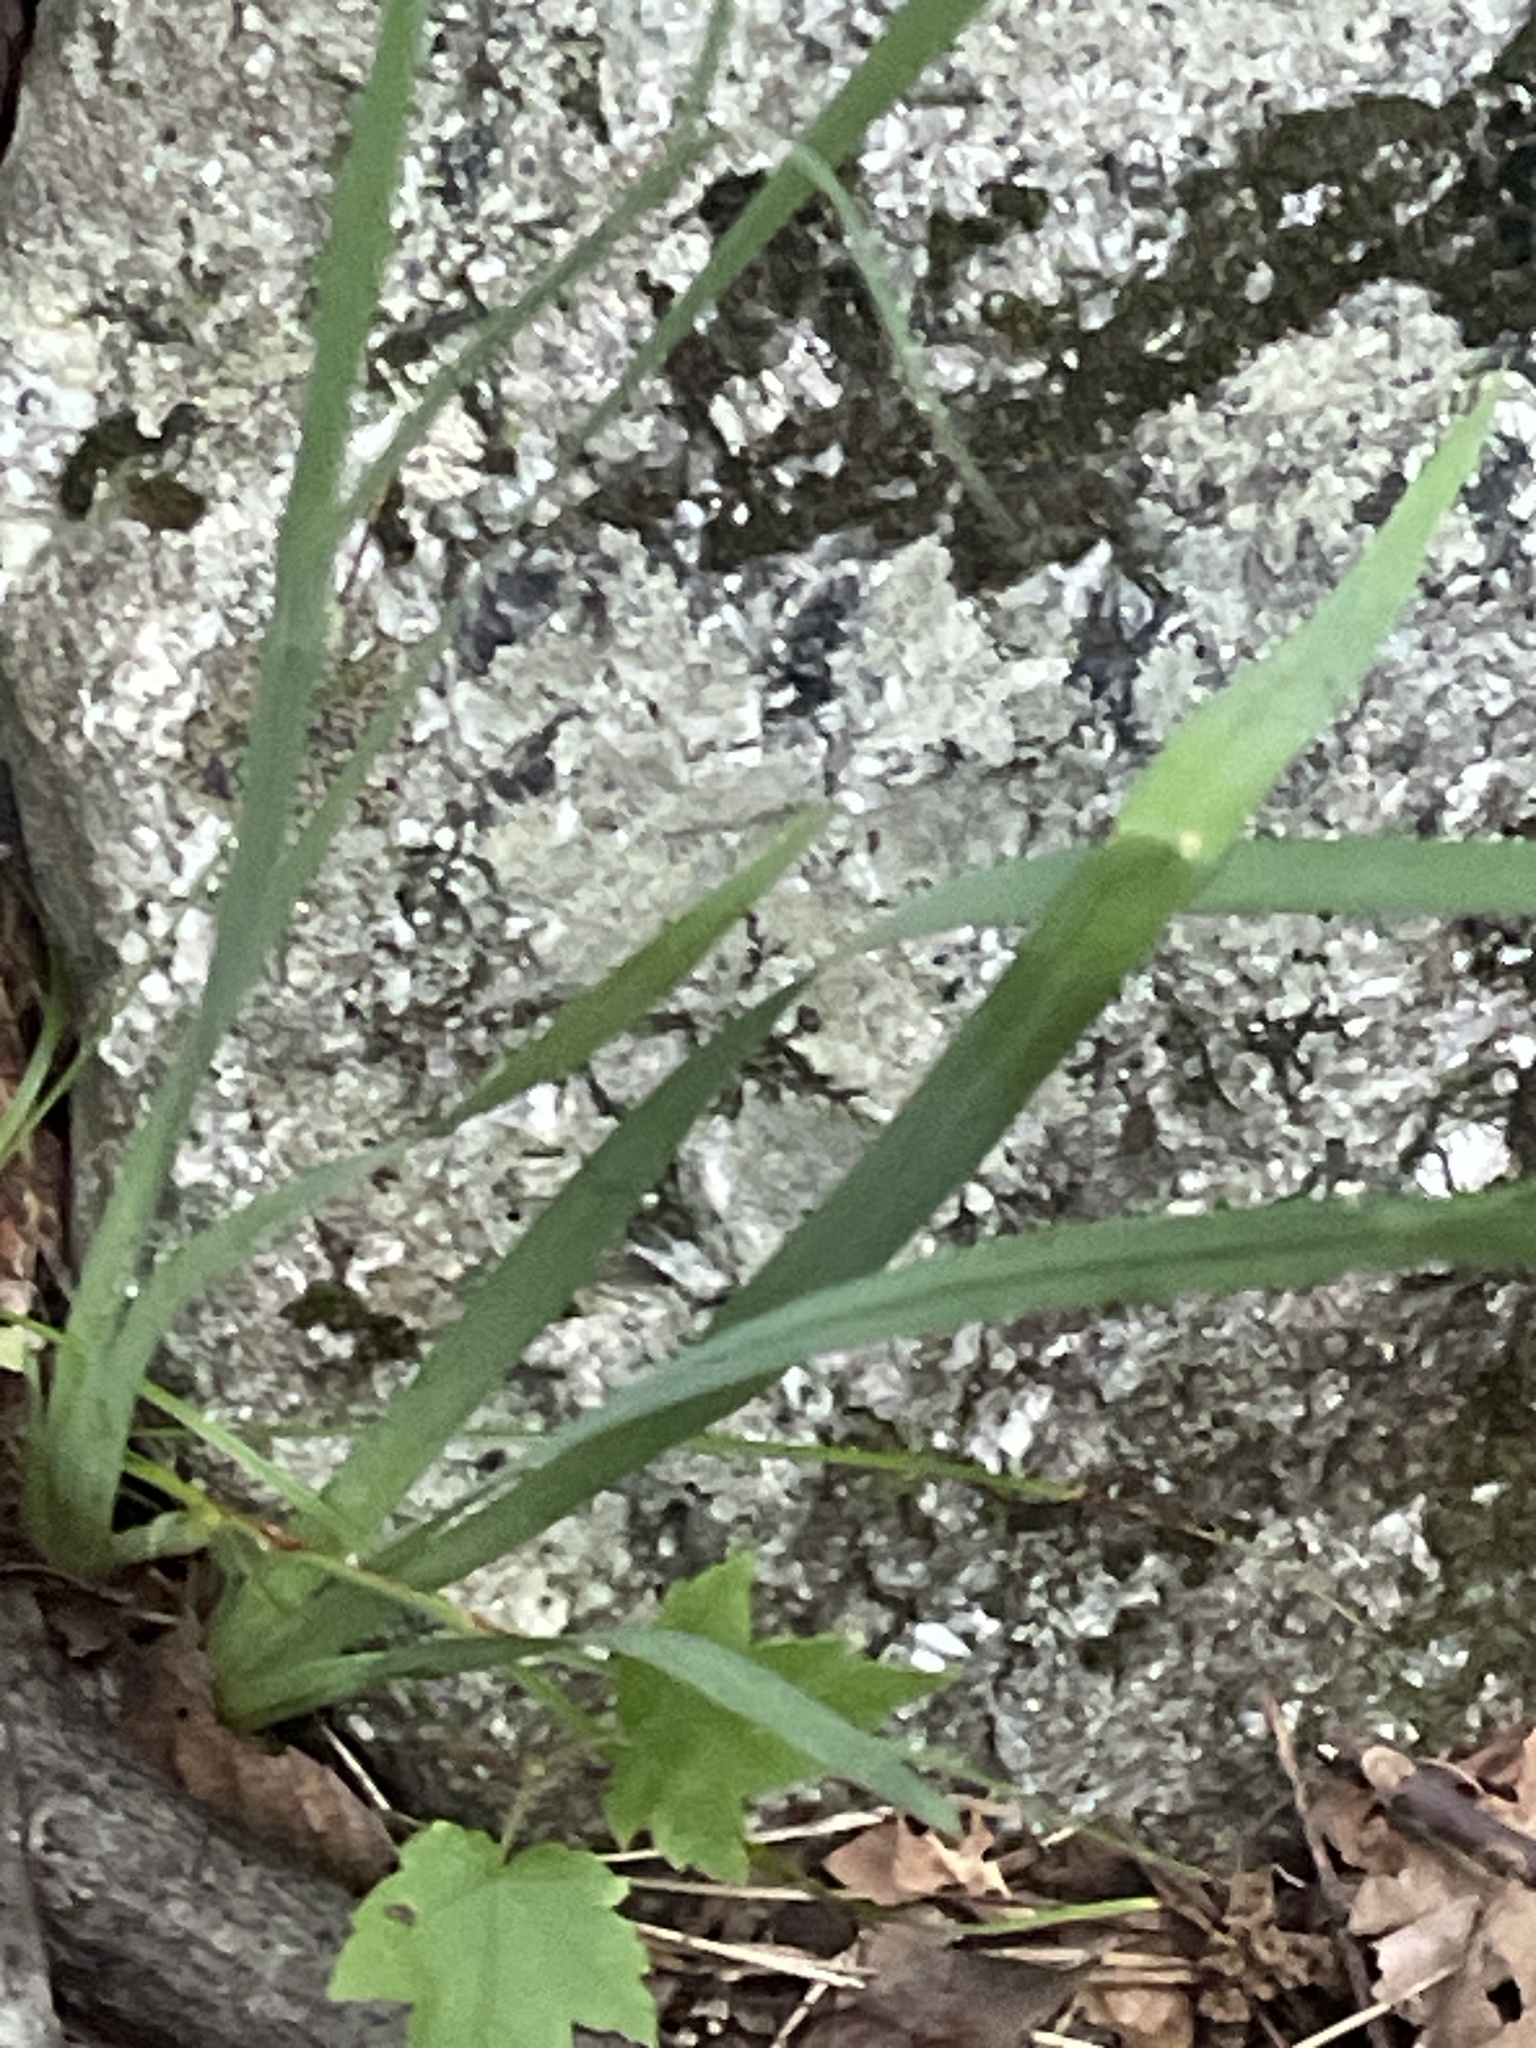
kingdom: Plantae
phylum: Tracheophyta
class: Liliopsida
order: Asparagales
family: Iridaceae
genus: Sisyrinchium
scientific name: Sisyrinchium dichotomum
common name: White irisette
